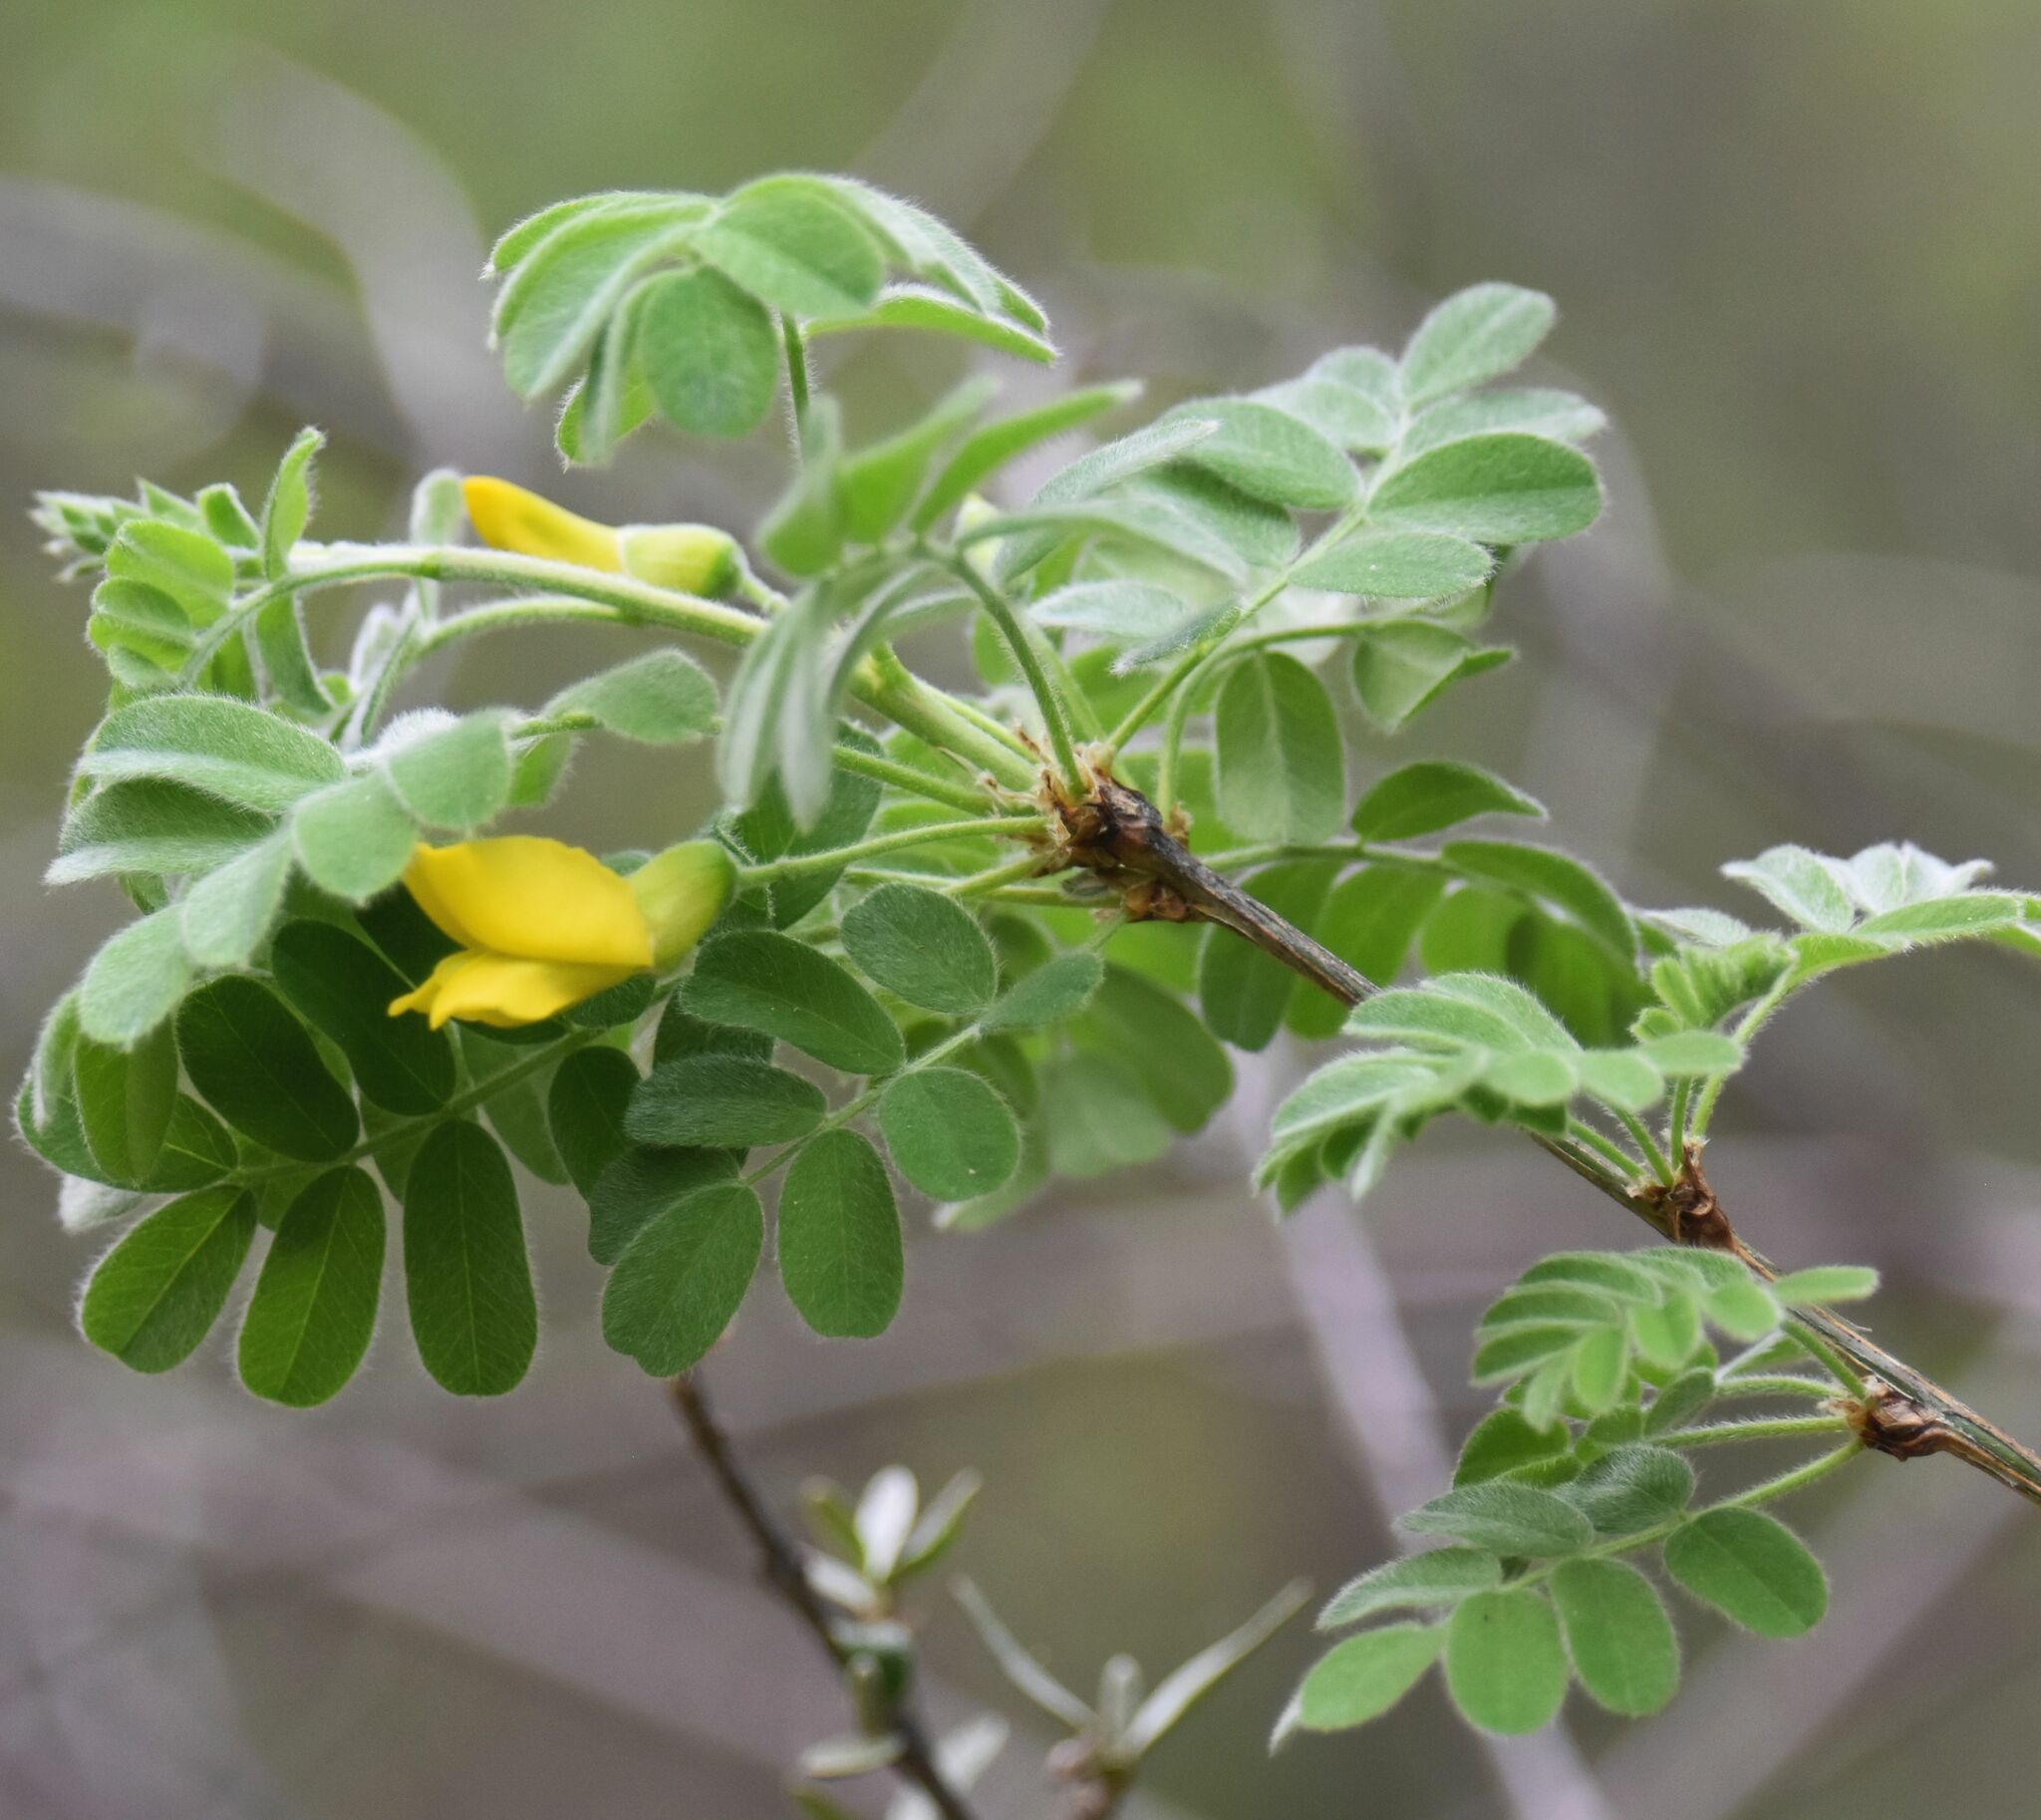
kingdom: Plantae
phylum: Tracheophyta
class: Magnoliopsida
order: Fabales
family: Fabaceae
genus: Caragana
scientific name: Caragana arborescens
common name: Siberian peashrub
